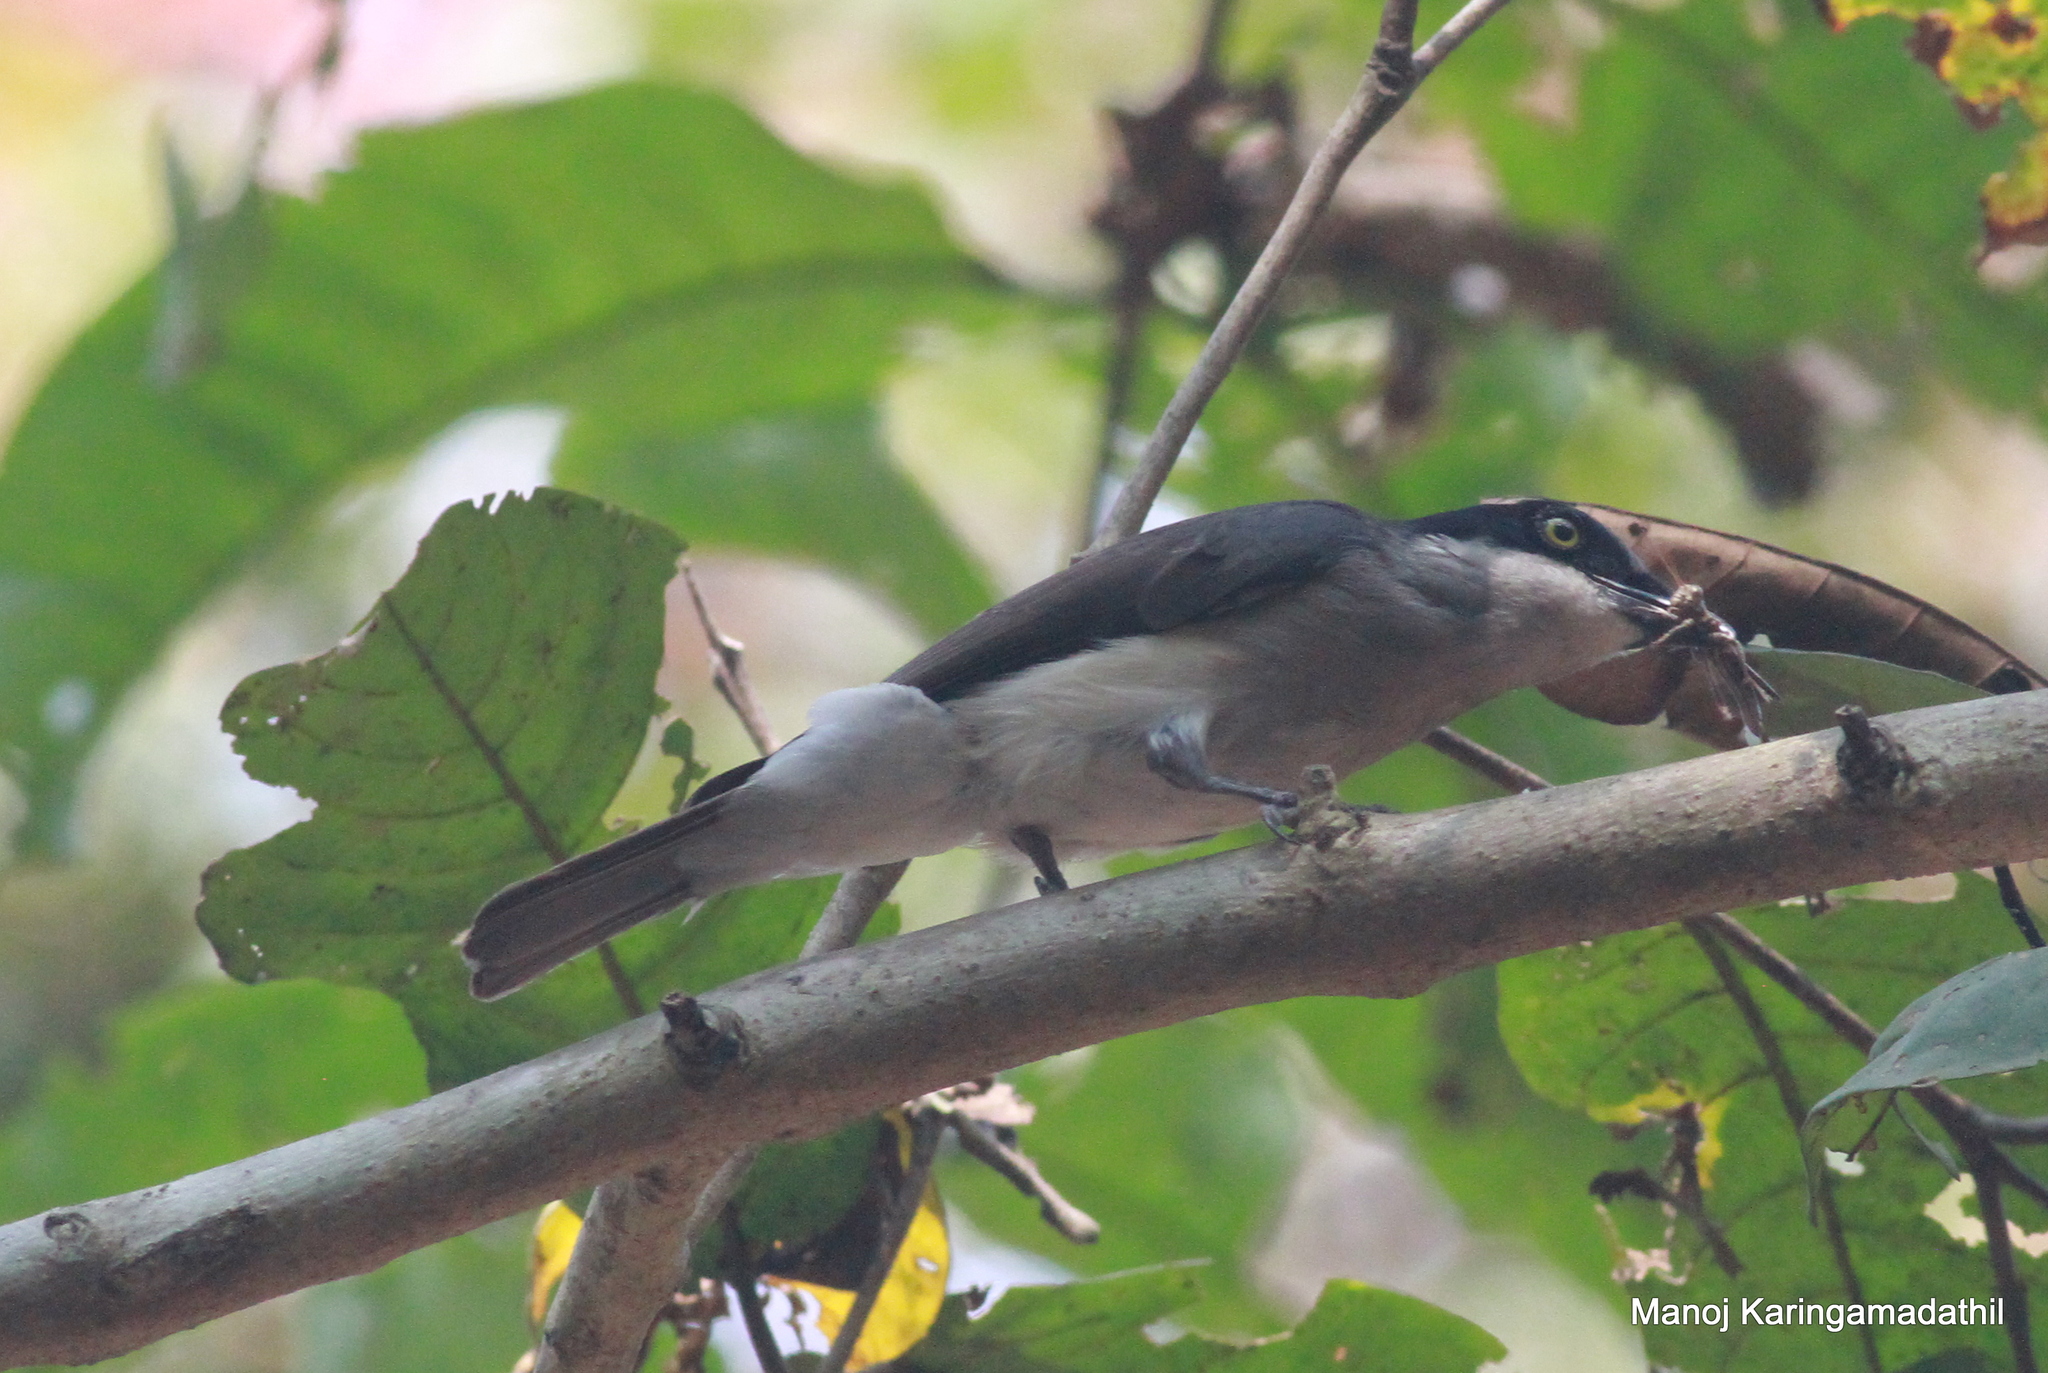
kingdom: Animalia
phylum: Chordata
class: Aves
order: Passeriformes
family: Tephrodornithidae
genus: Tephrodornis
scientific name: Tephrodornis sylvicola
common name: Malabar woodshrike
